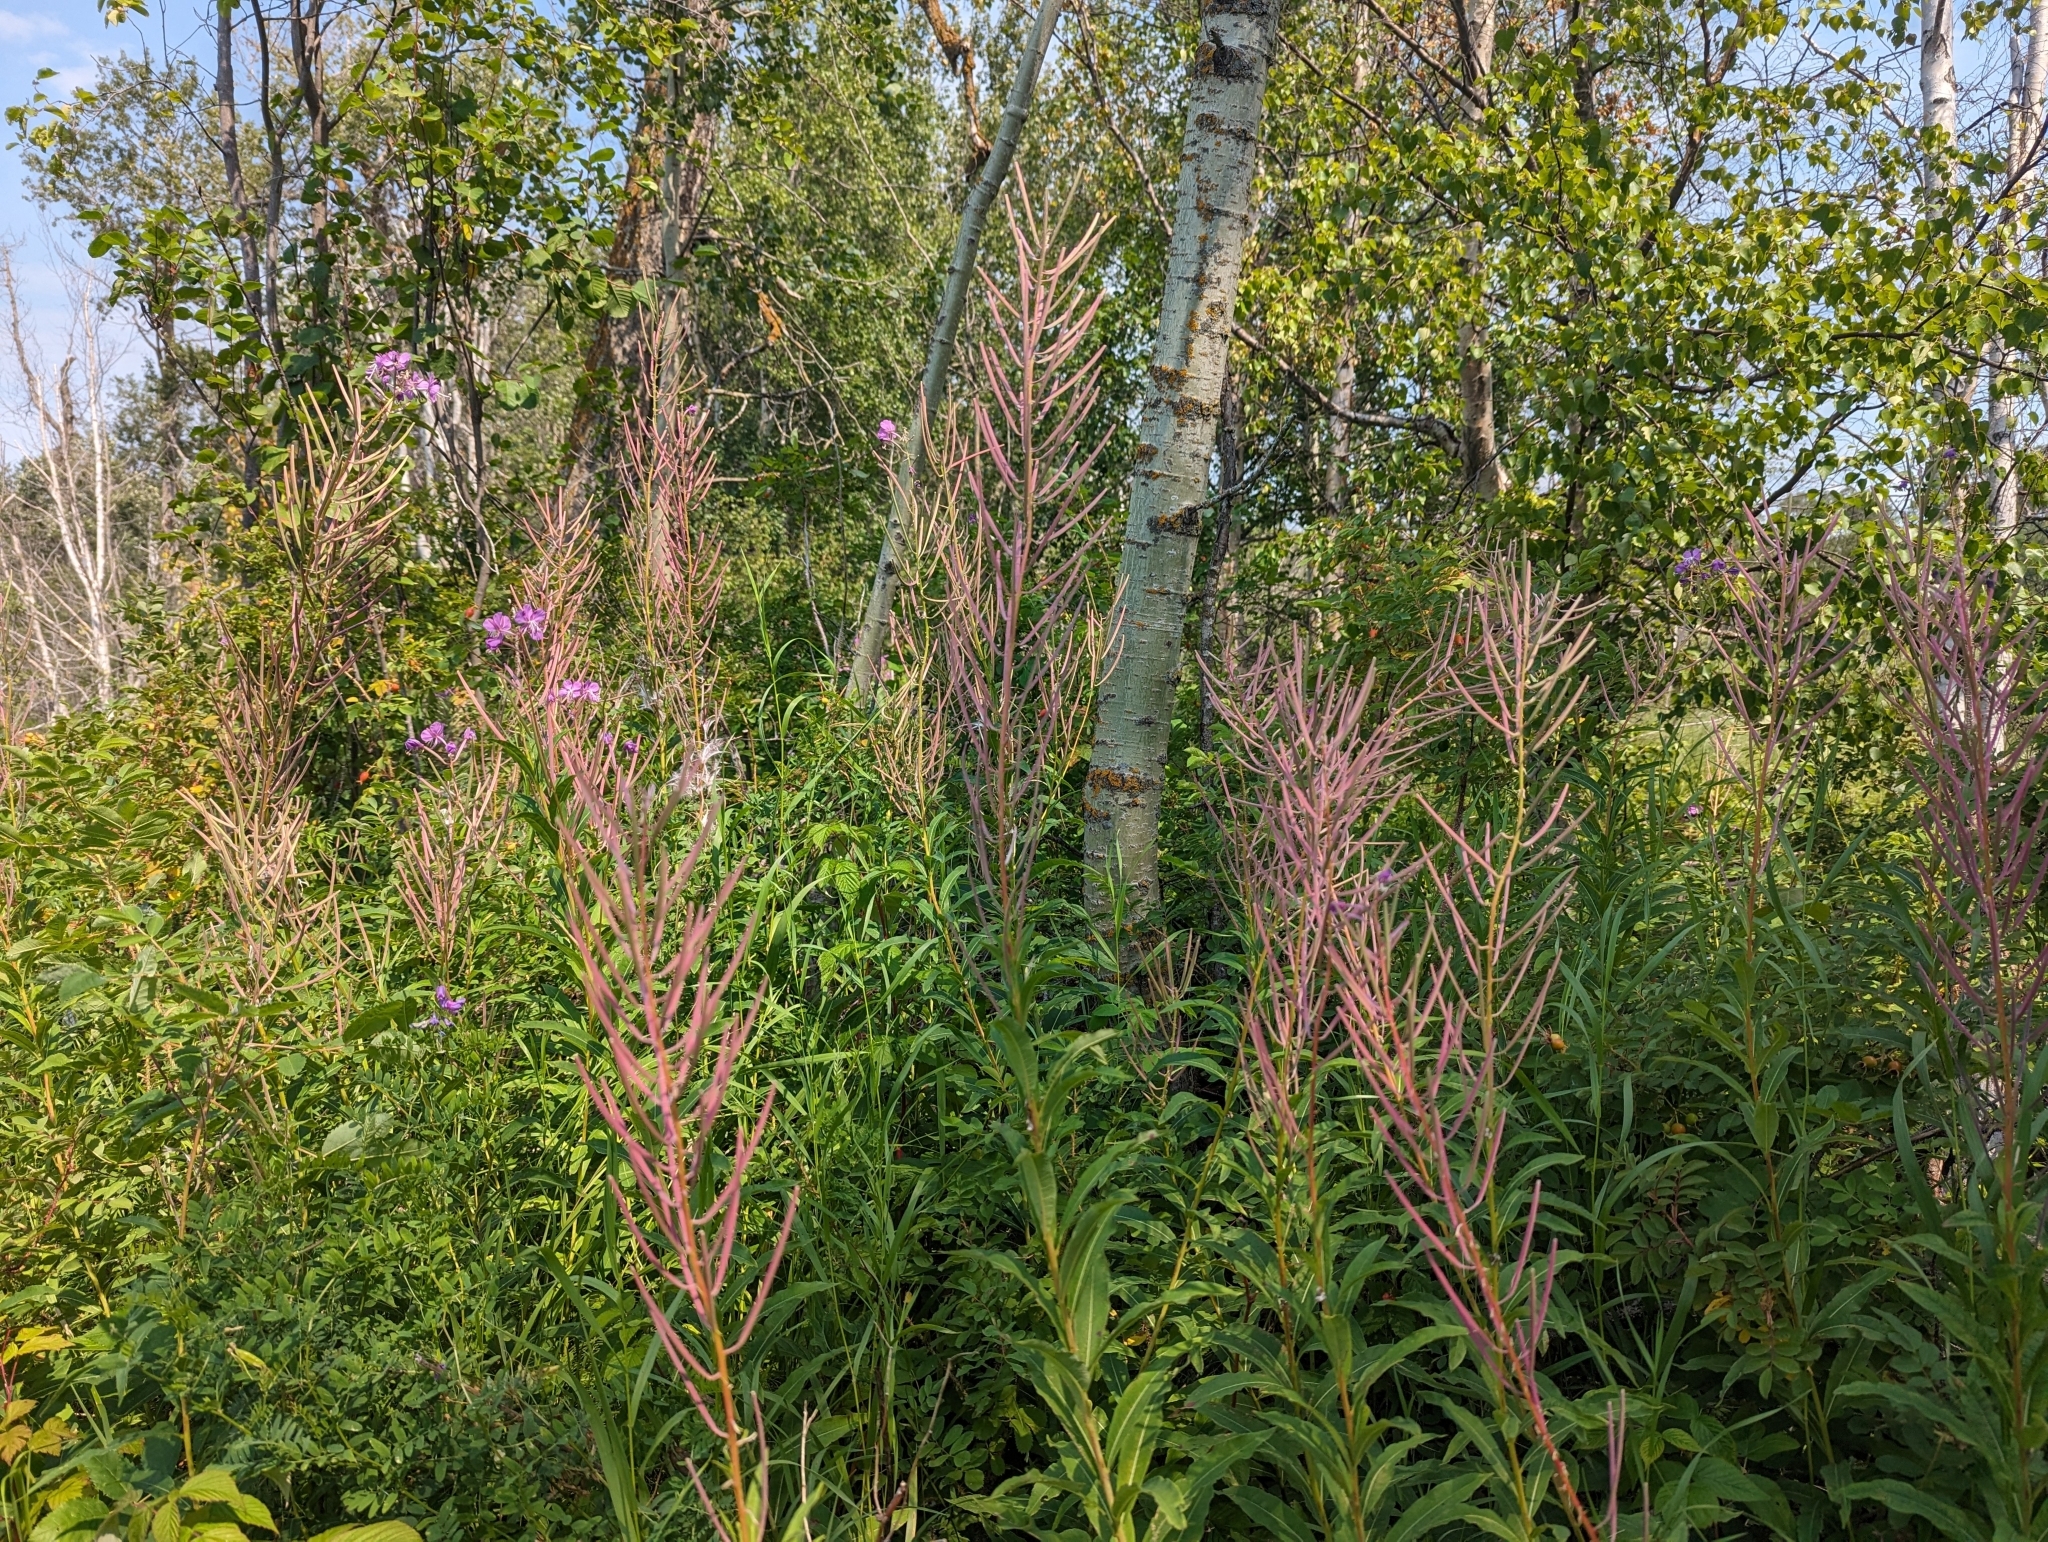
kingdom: Plantae
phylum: Tracheophyta
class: Magnoliopsida
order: Myrtales
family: Onagraceae
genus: Chamaenerion
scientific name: Chamaenerion angustifolium
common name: Fireweed
